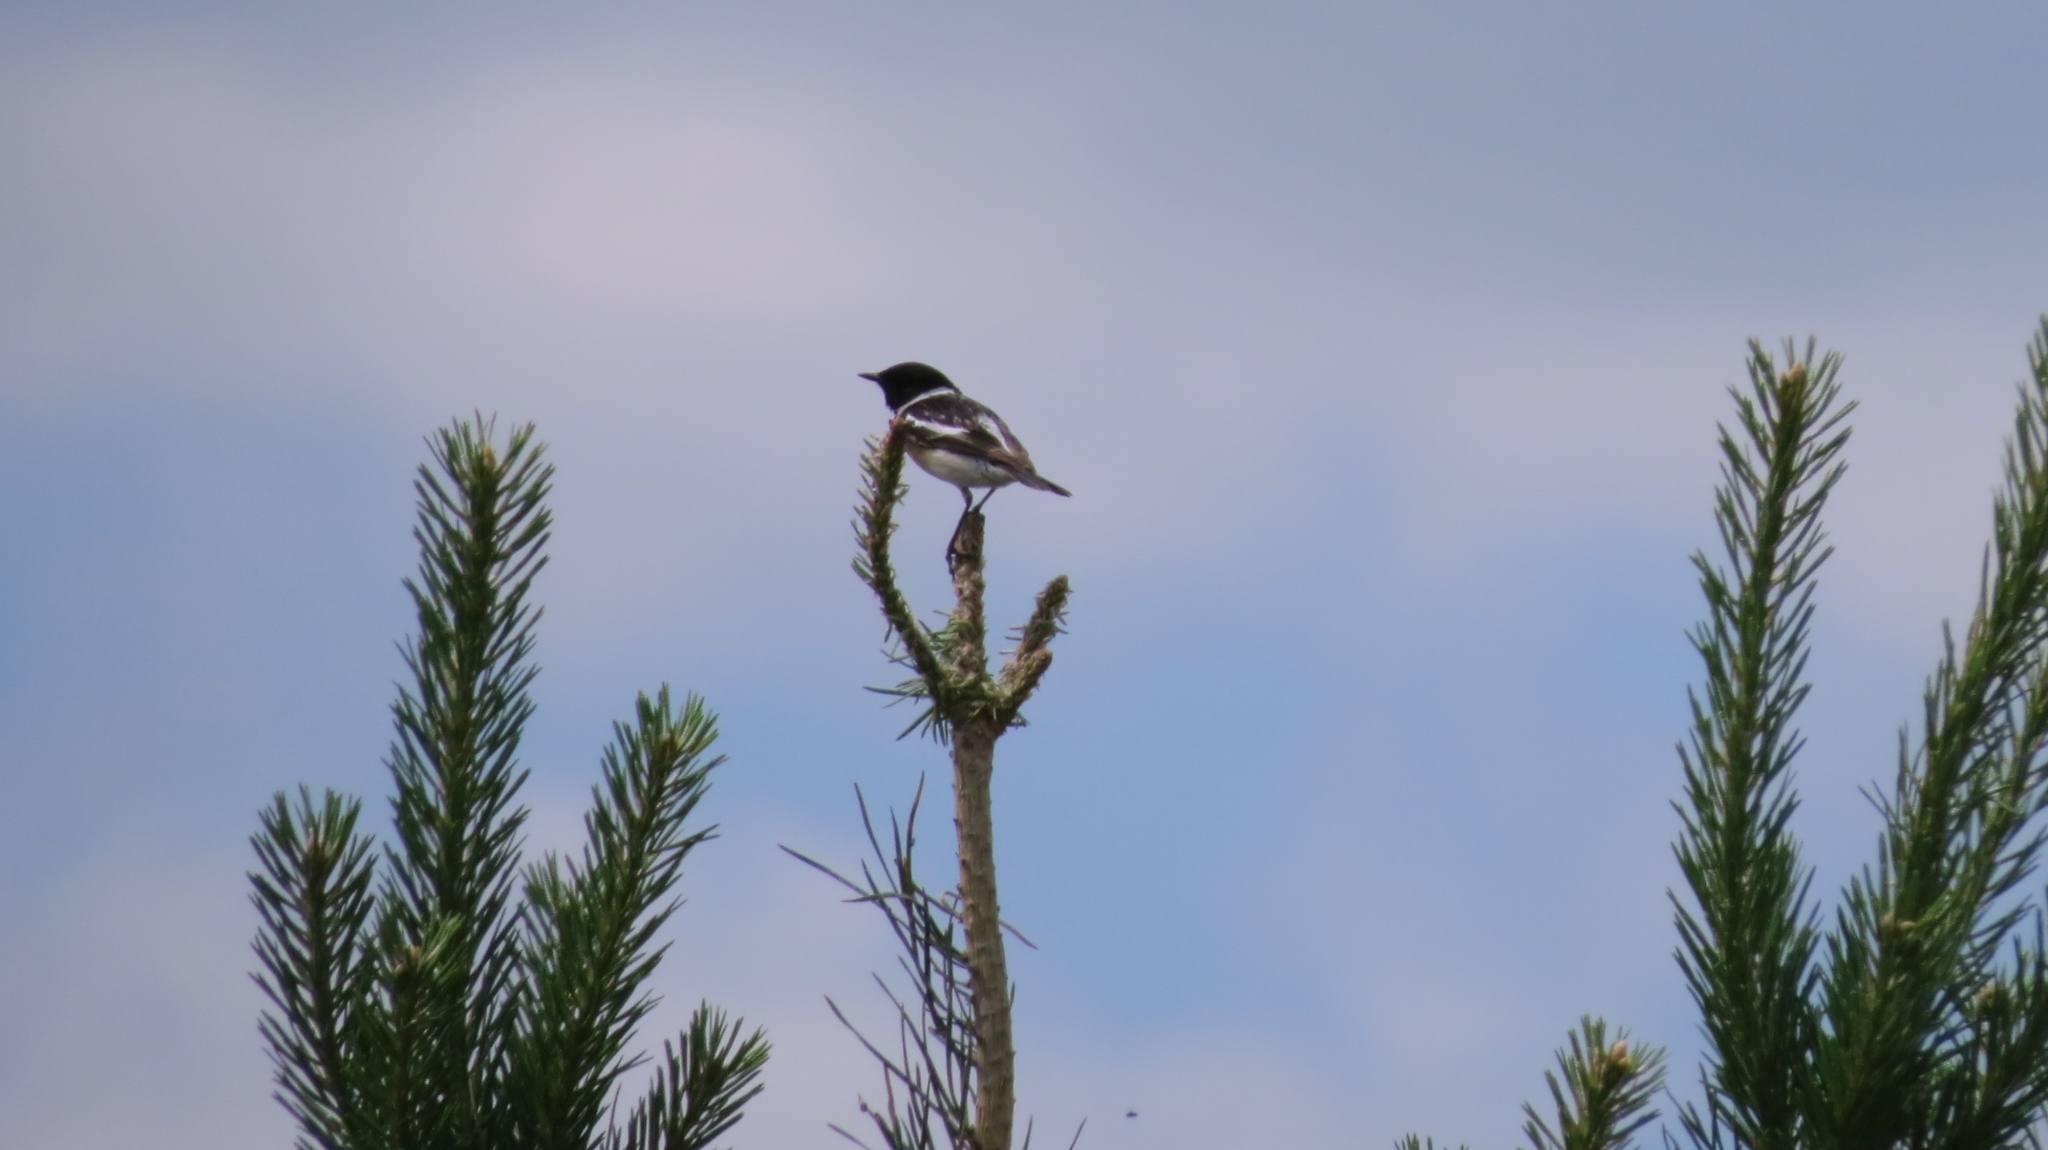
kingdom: Animalia
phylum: Chordata
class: Aves
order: Passeriformes
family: Muscicapidae
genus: Saxicola
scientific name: Saxicola maurus
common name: Siberian stonechat
